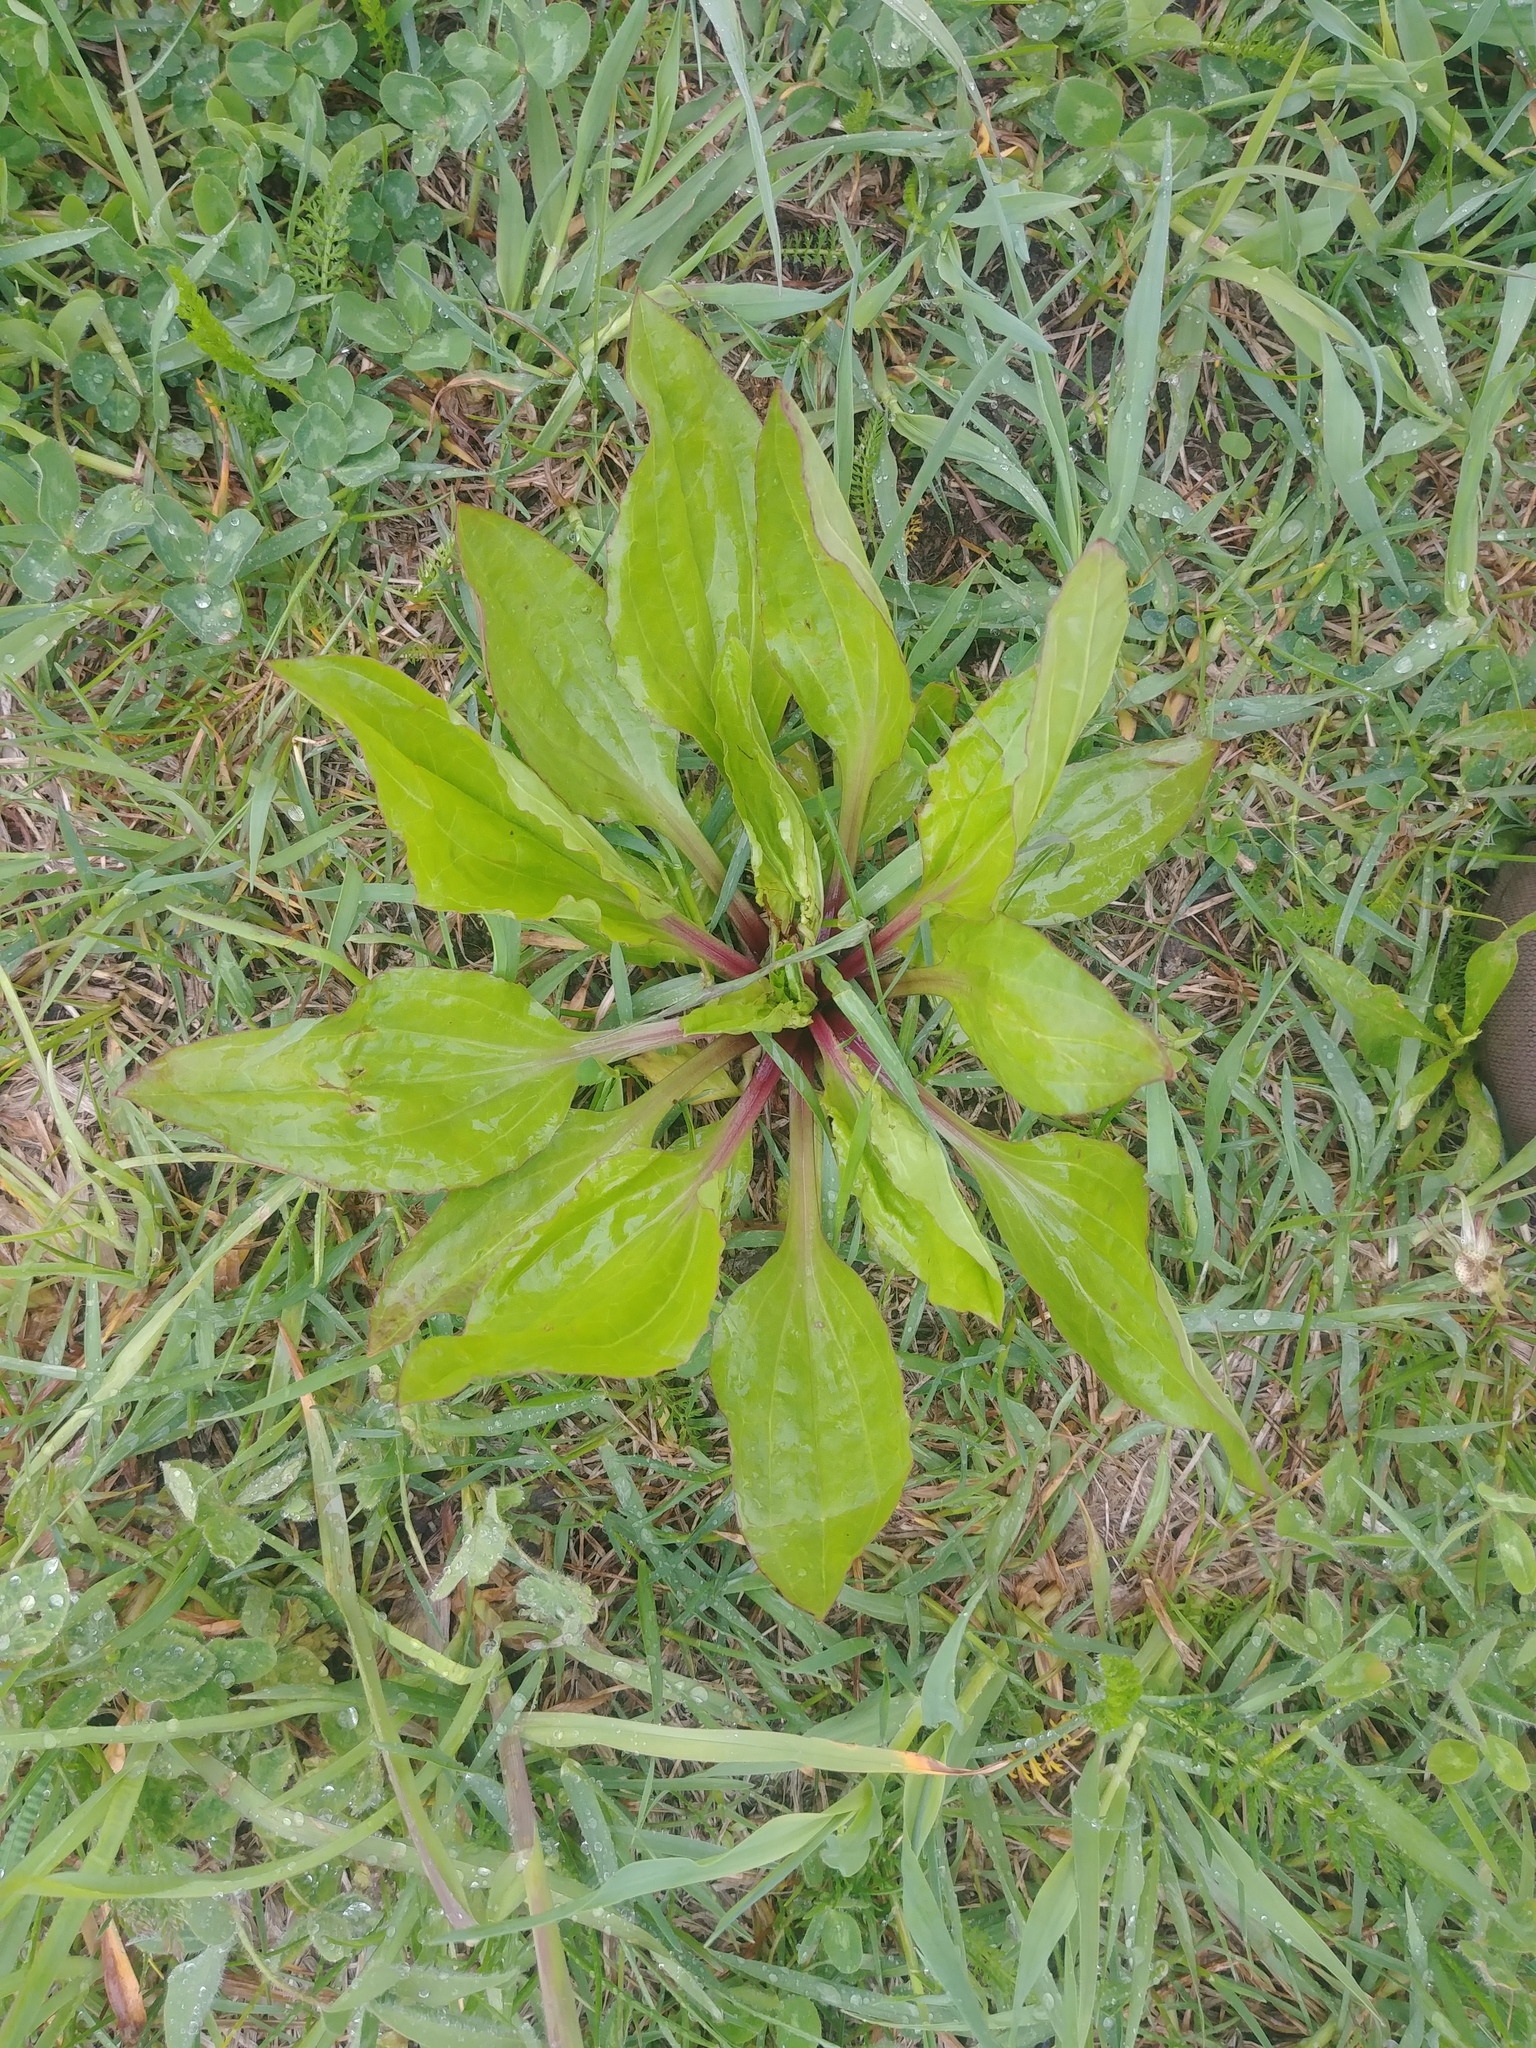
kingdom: Plantae
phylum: Tracheophyta
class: Magnoliopsida
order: Lamiales
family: Plantaginaceae
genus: Plantago
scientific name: Plantago rugelii
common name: American plantain
